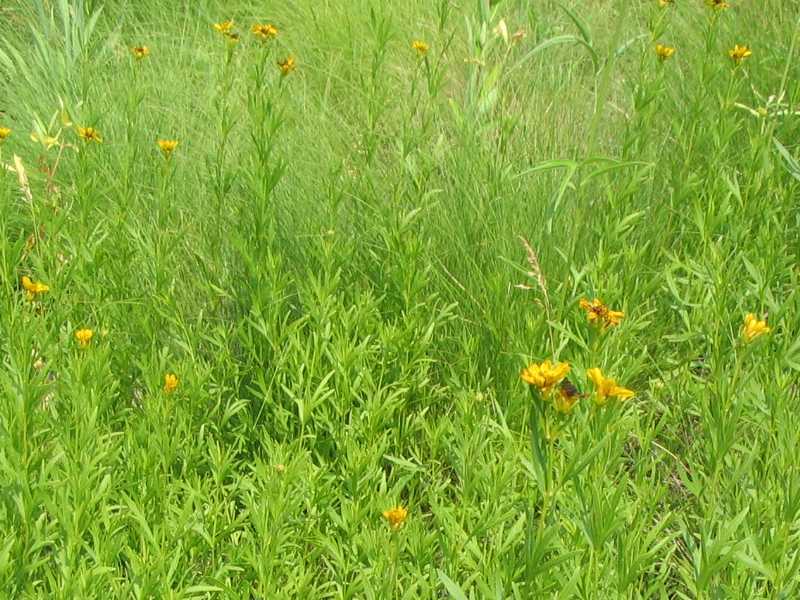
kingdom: Plantae
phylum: Tracheophyta
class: Magnoliopsida
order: Asterales
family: Asteraceae
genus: Coreopsis
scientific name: Coreopsis palmata
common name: Prairie coreopsis
